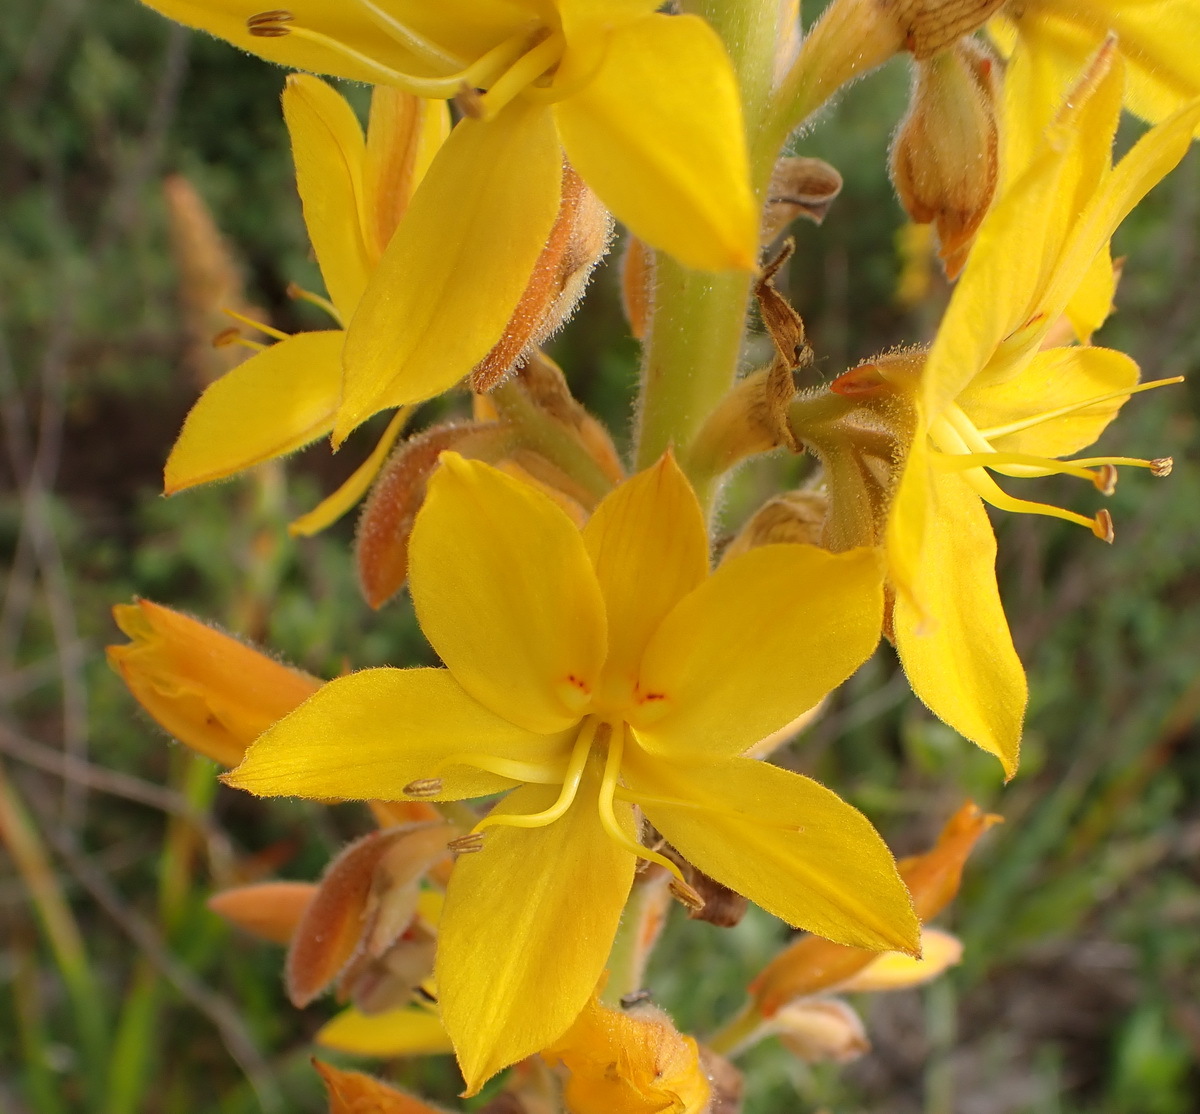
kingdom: Plantae
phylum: Tracheophyta
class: Liliopsida
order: Commelinales
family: Haemodoraceae
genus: Wachendorfia
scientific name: Wachendorfia thyrsiflora
